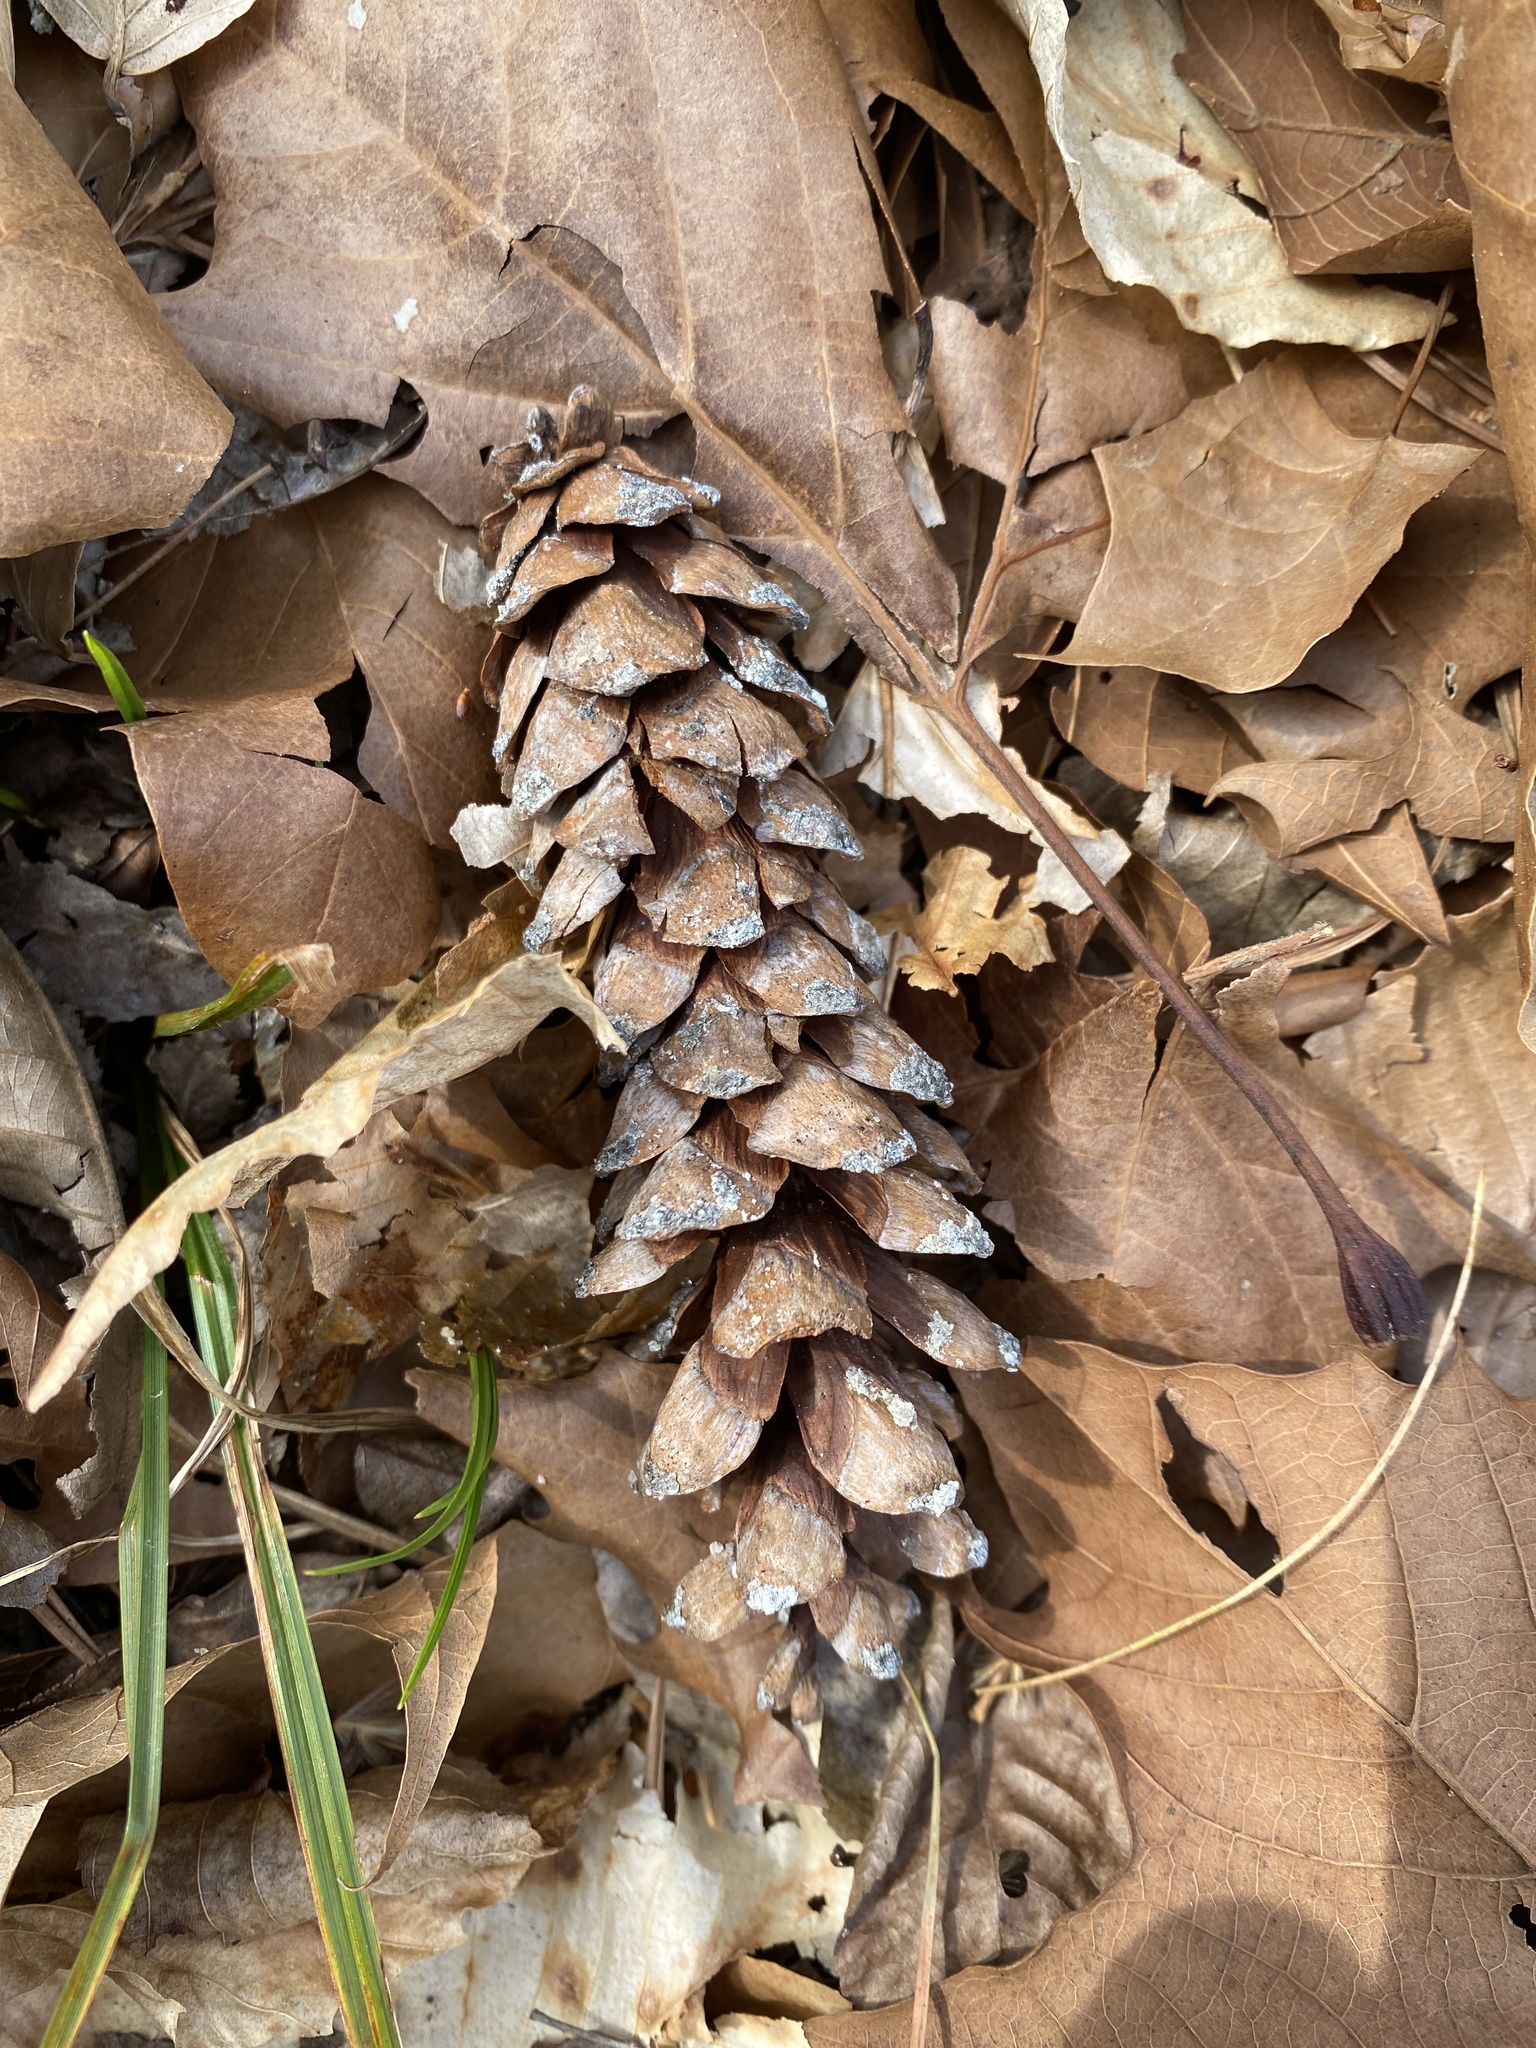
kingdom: Plantae
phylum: Tracheophyta
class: Pinopsida
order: Pinales
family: Pinaceae
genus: Pinus
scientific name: Pinus strobus
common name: Weymouth pine
